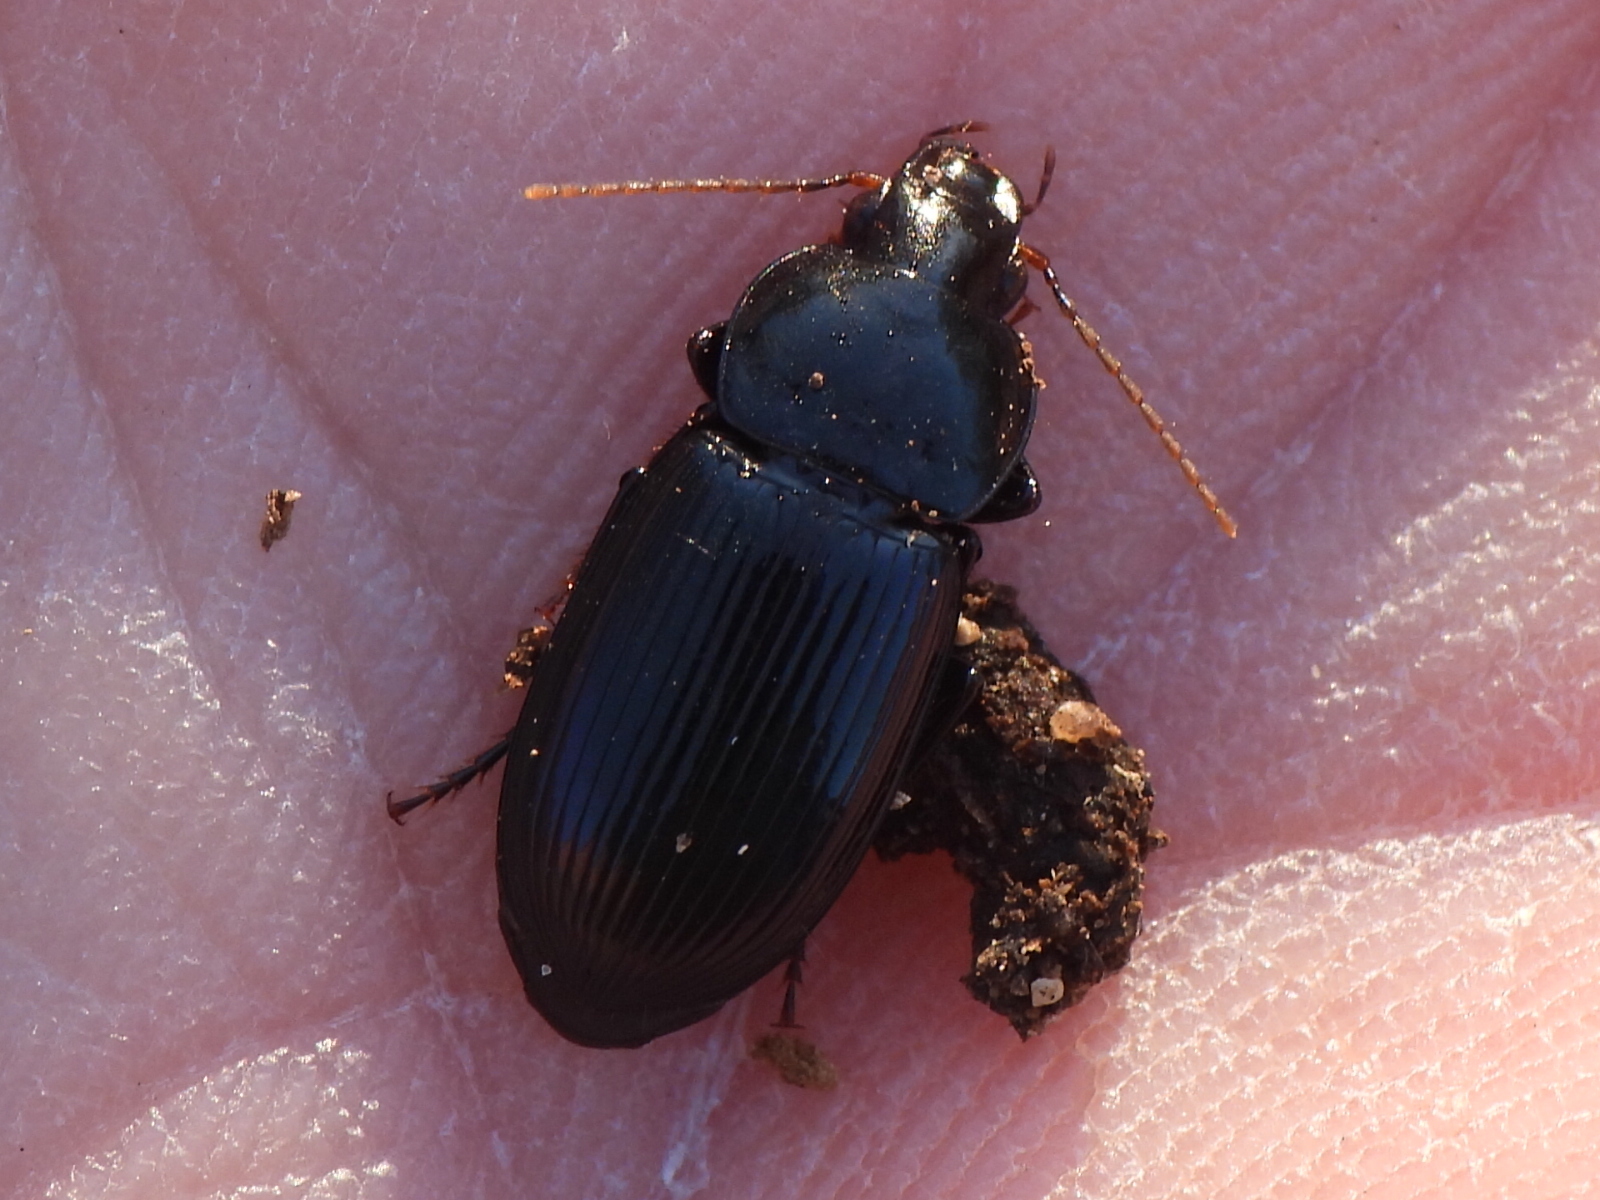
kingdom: Animalia
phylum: Arthropoda
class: Insecta
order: Coleoptera
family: Carabidae
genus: Aztecarpalus
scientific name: Aztecarpalus schaefferi
